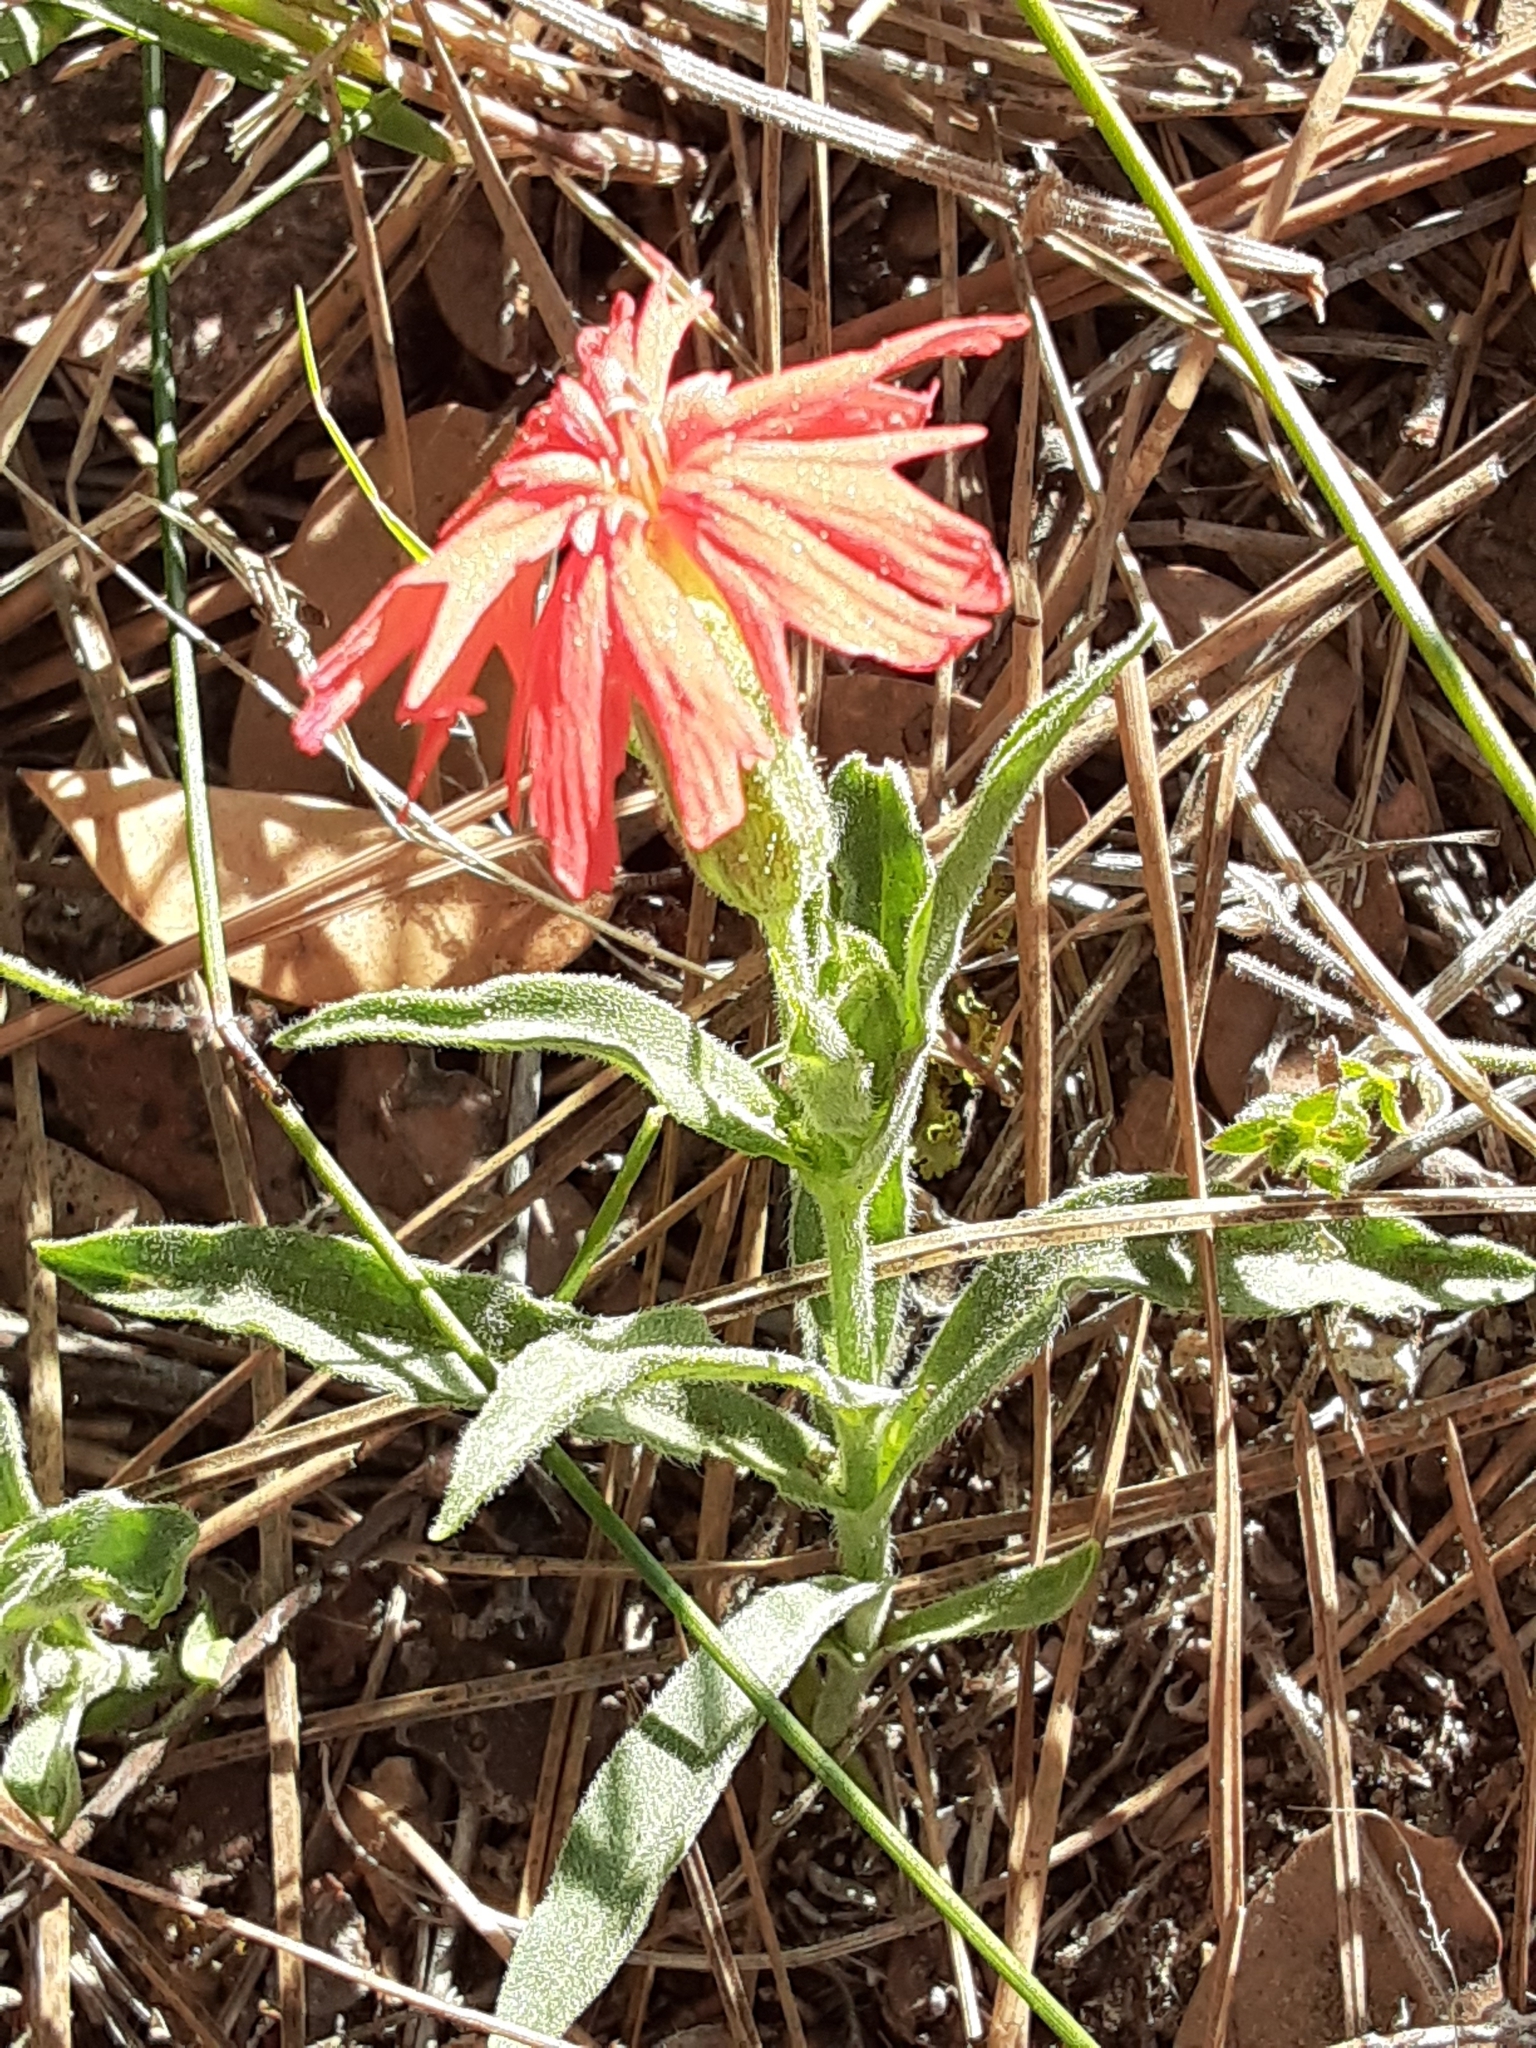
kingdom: Plantae
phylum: Tracheophyta
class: Magnoliopsida
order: Caryophyllales
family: Caryophyllaceae
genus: Silene
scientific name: Silene laciniata
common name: Indian-pink
